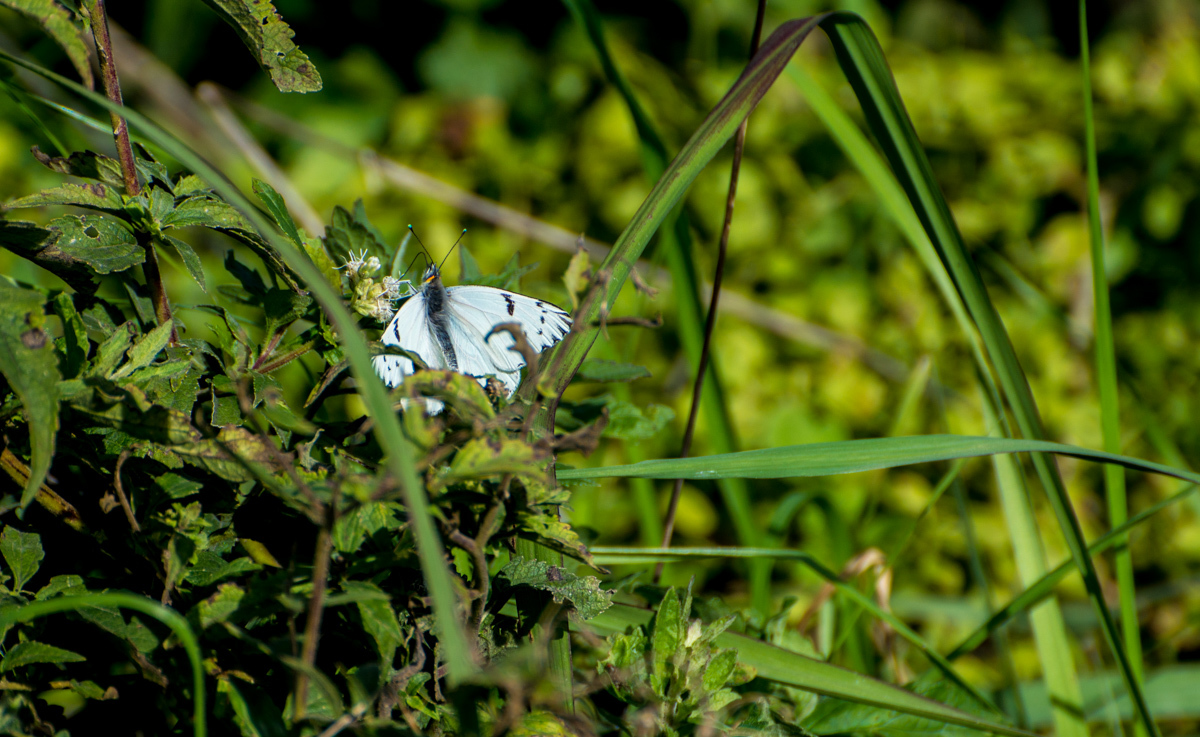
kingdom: Animalia
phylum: Arthropoda
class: Insecta
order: Lepidoptera
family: Pieridae
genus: Tatochila
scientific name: Tatochila autodice
